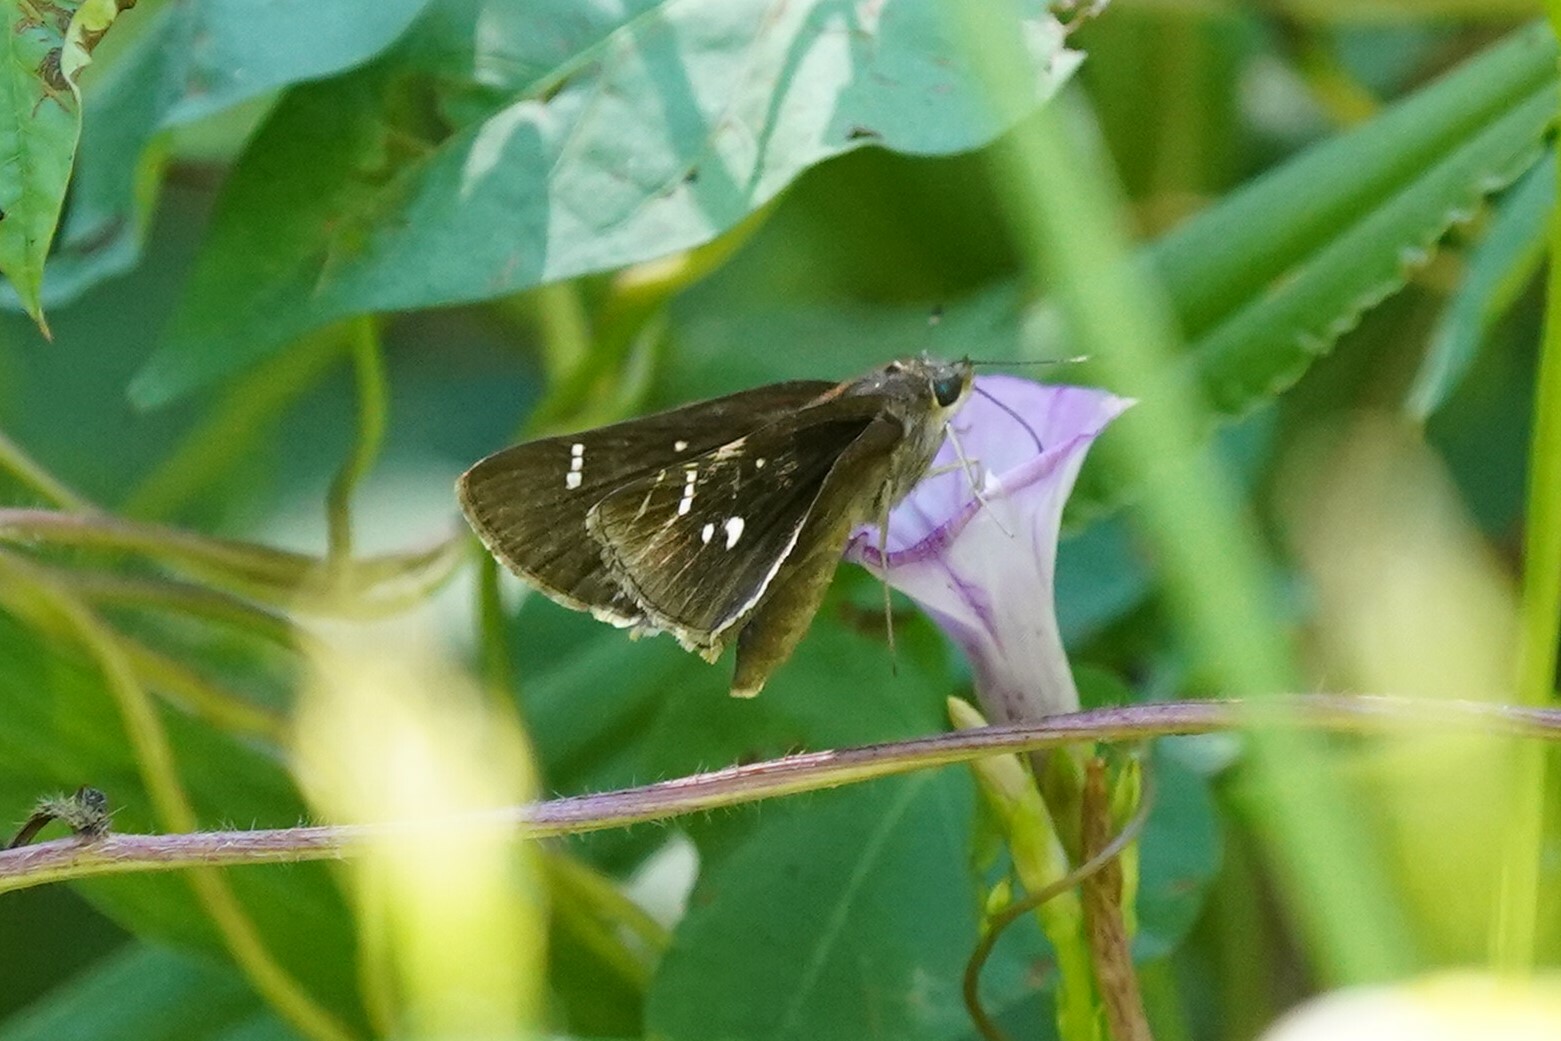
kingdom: Animalia
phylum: Arthropoda
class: Insecta
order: Lepidoptera
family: Hesperiidae
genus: Lerema
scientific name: Lerema accius
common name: Clouded skipper
